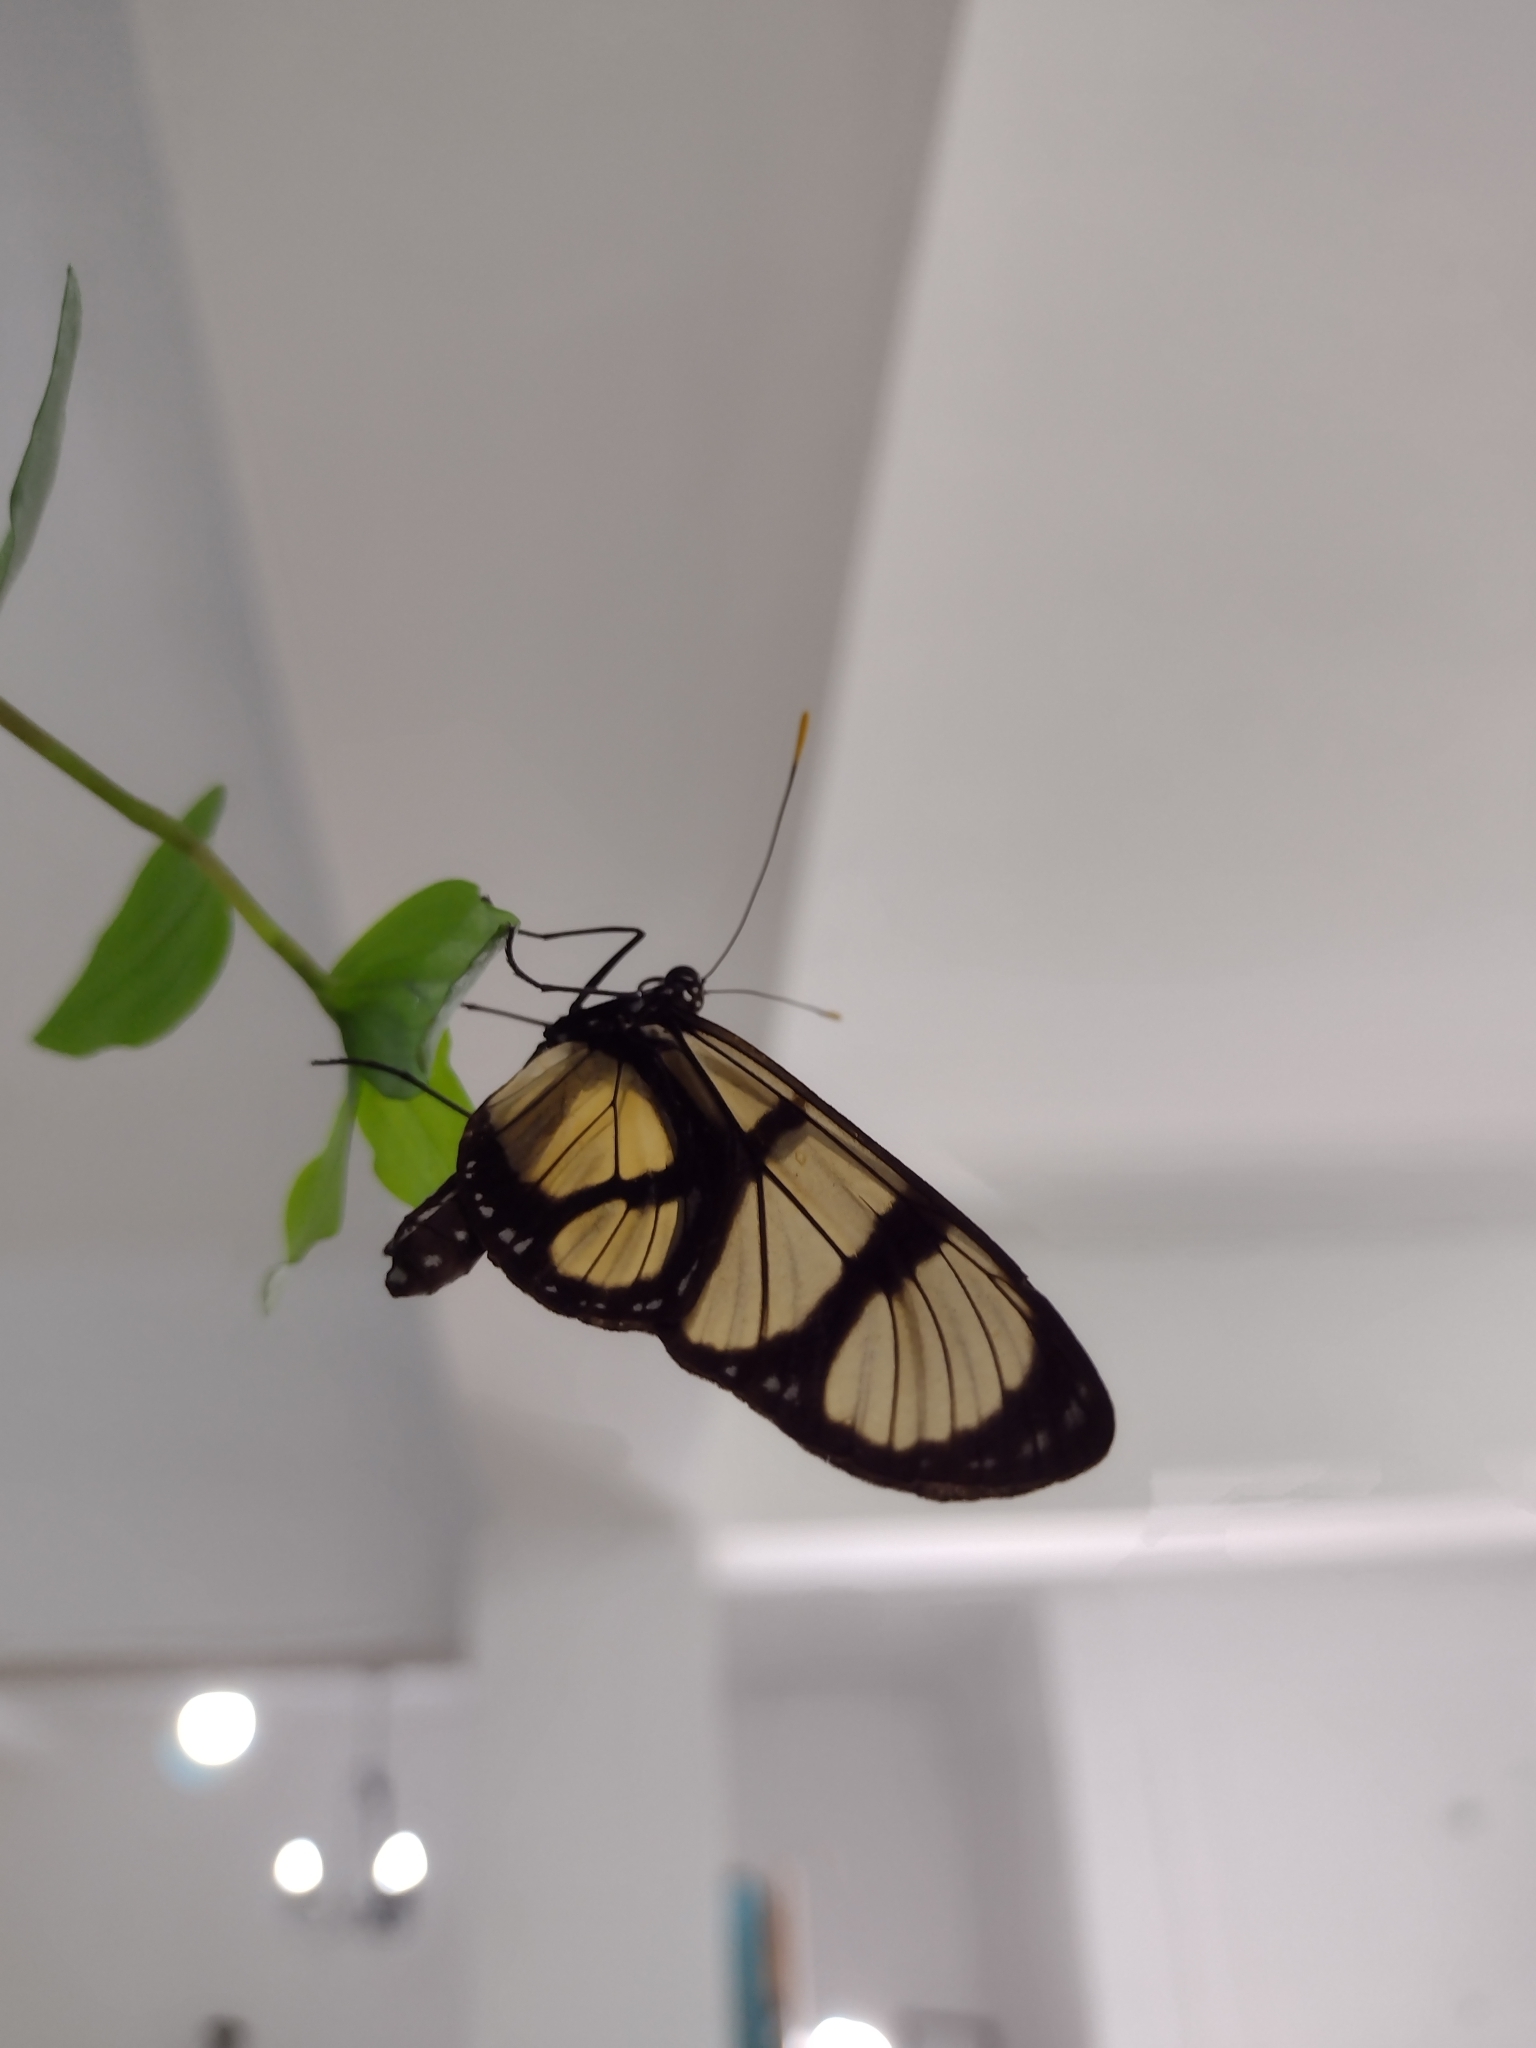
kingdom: Animalia
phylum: Arthropoda
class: Insecta
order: Lepidoptera
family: Nymphalidae
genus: Methona
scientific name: Methona confusa
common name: Confusa tigerwing
